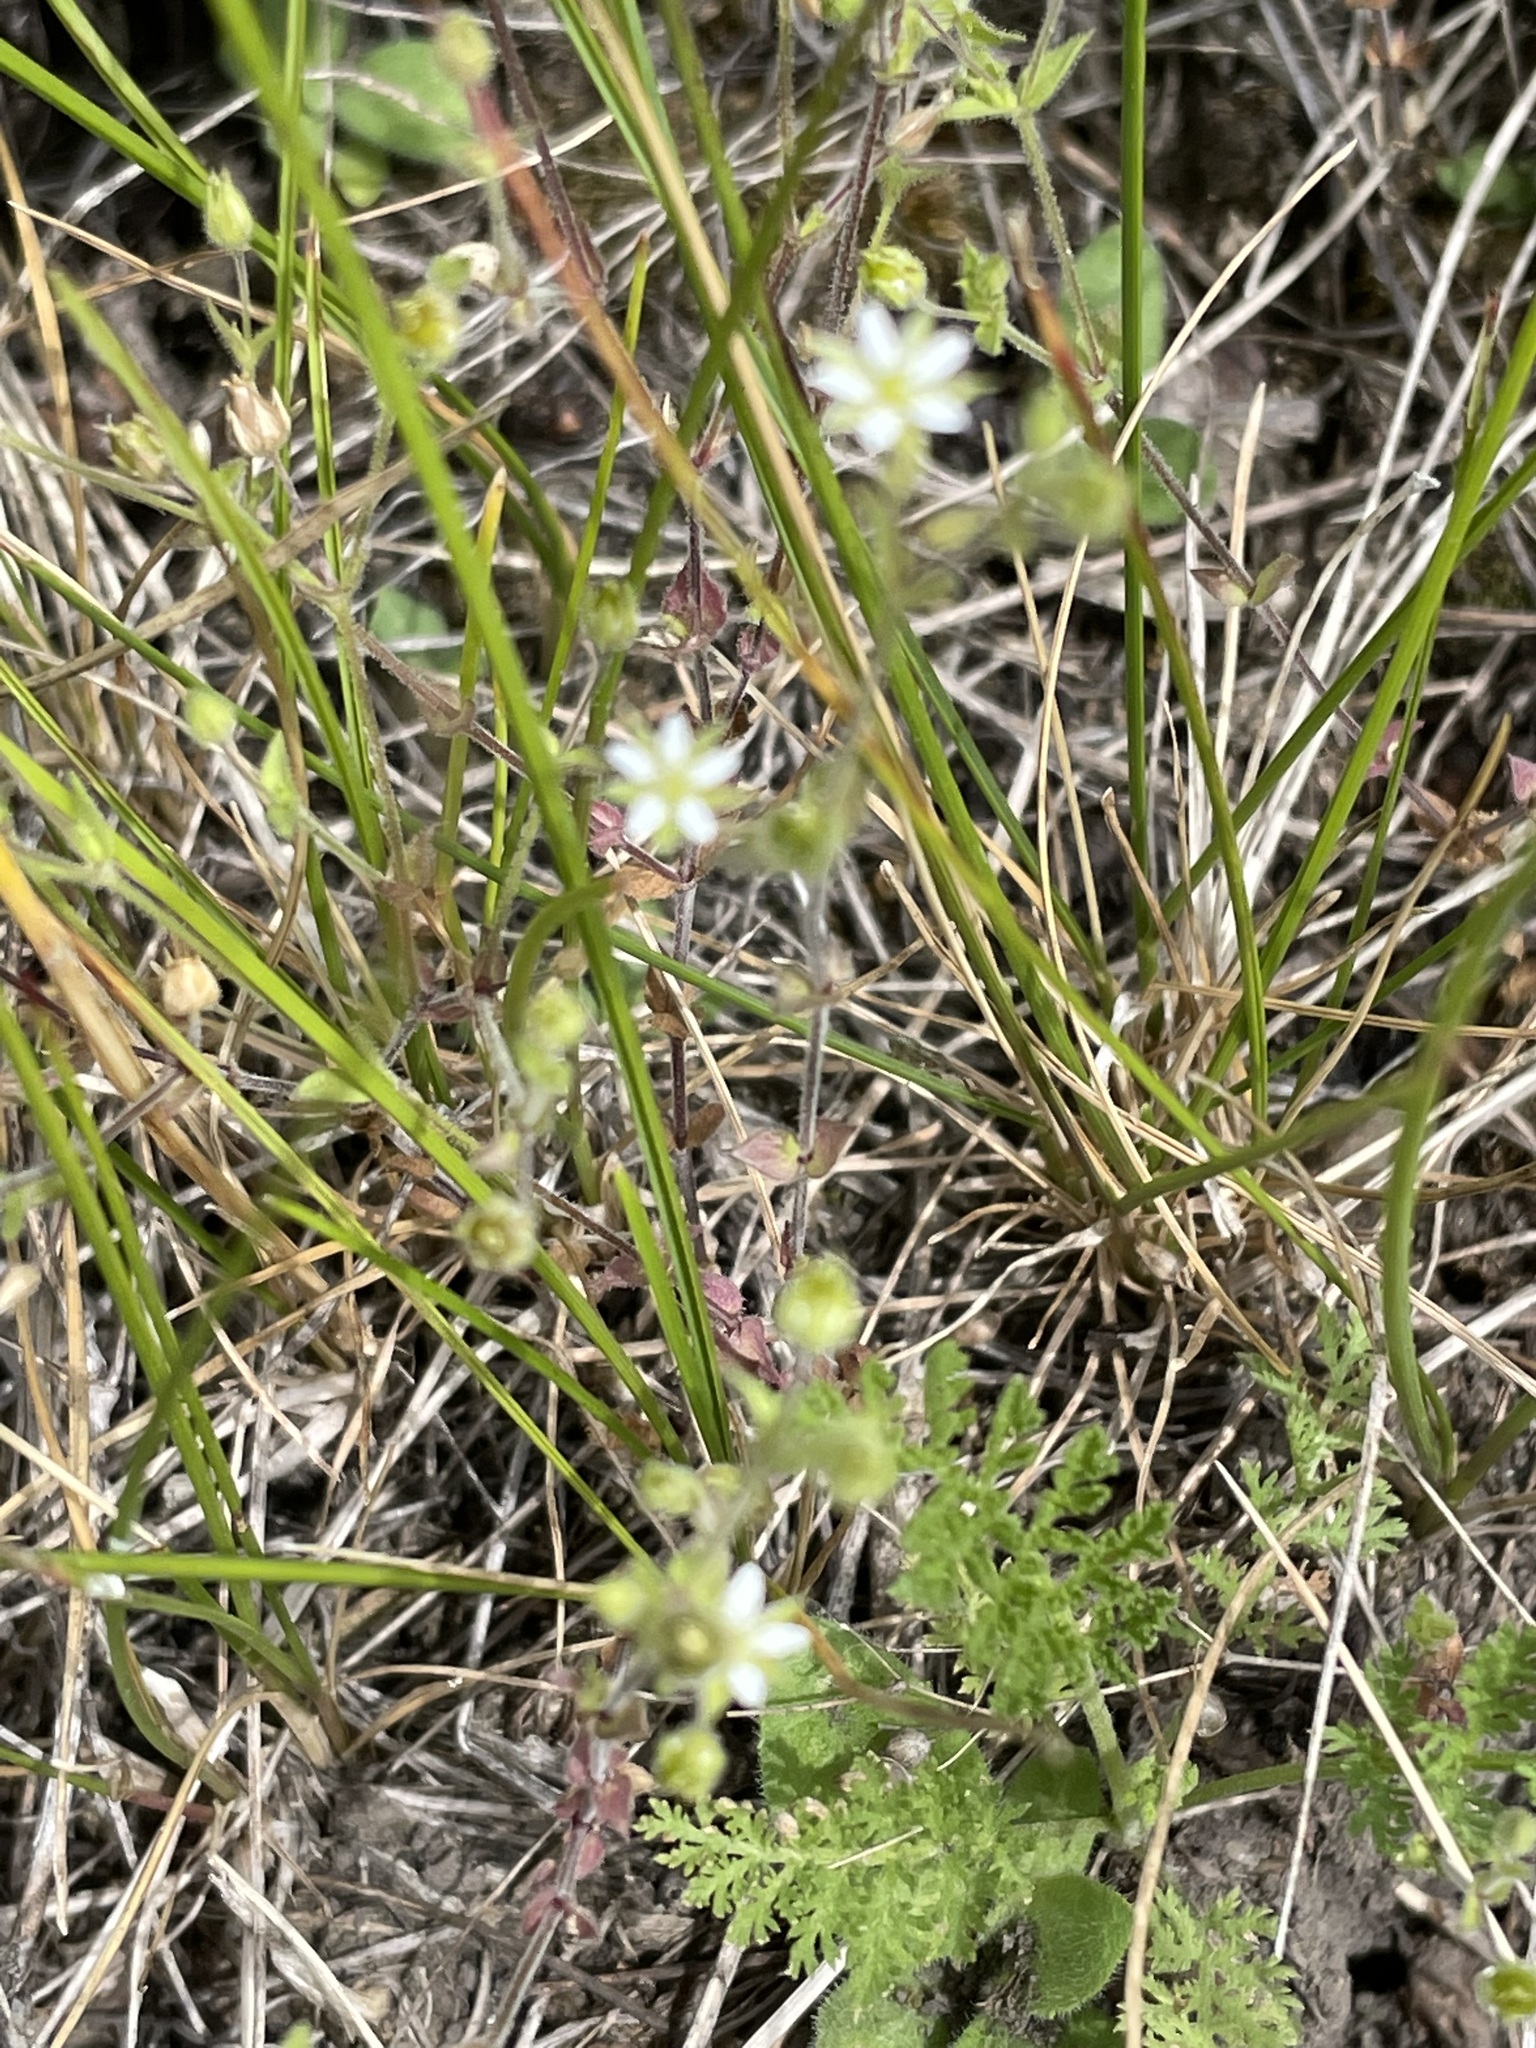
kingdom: Plantae
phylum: Tracheophyta
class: Magnoliopsida
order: Caryophyllales
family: Caryophyllaceae
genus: Arenaria
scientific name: Arenaria serpyllifolia
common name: Thyme-leaved sandwort
